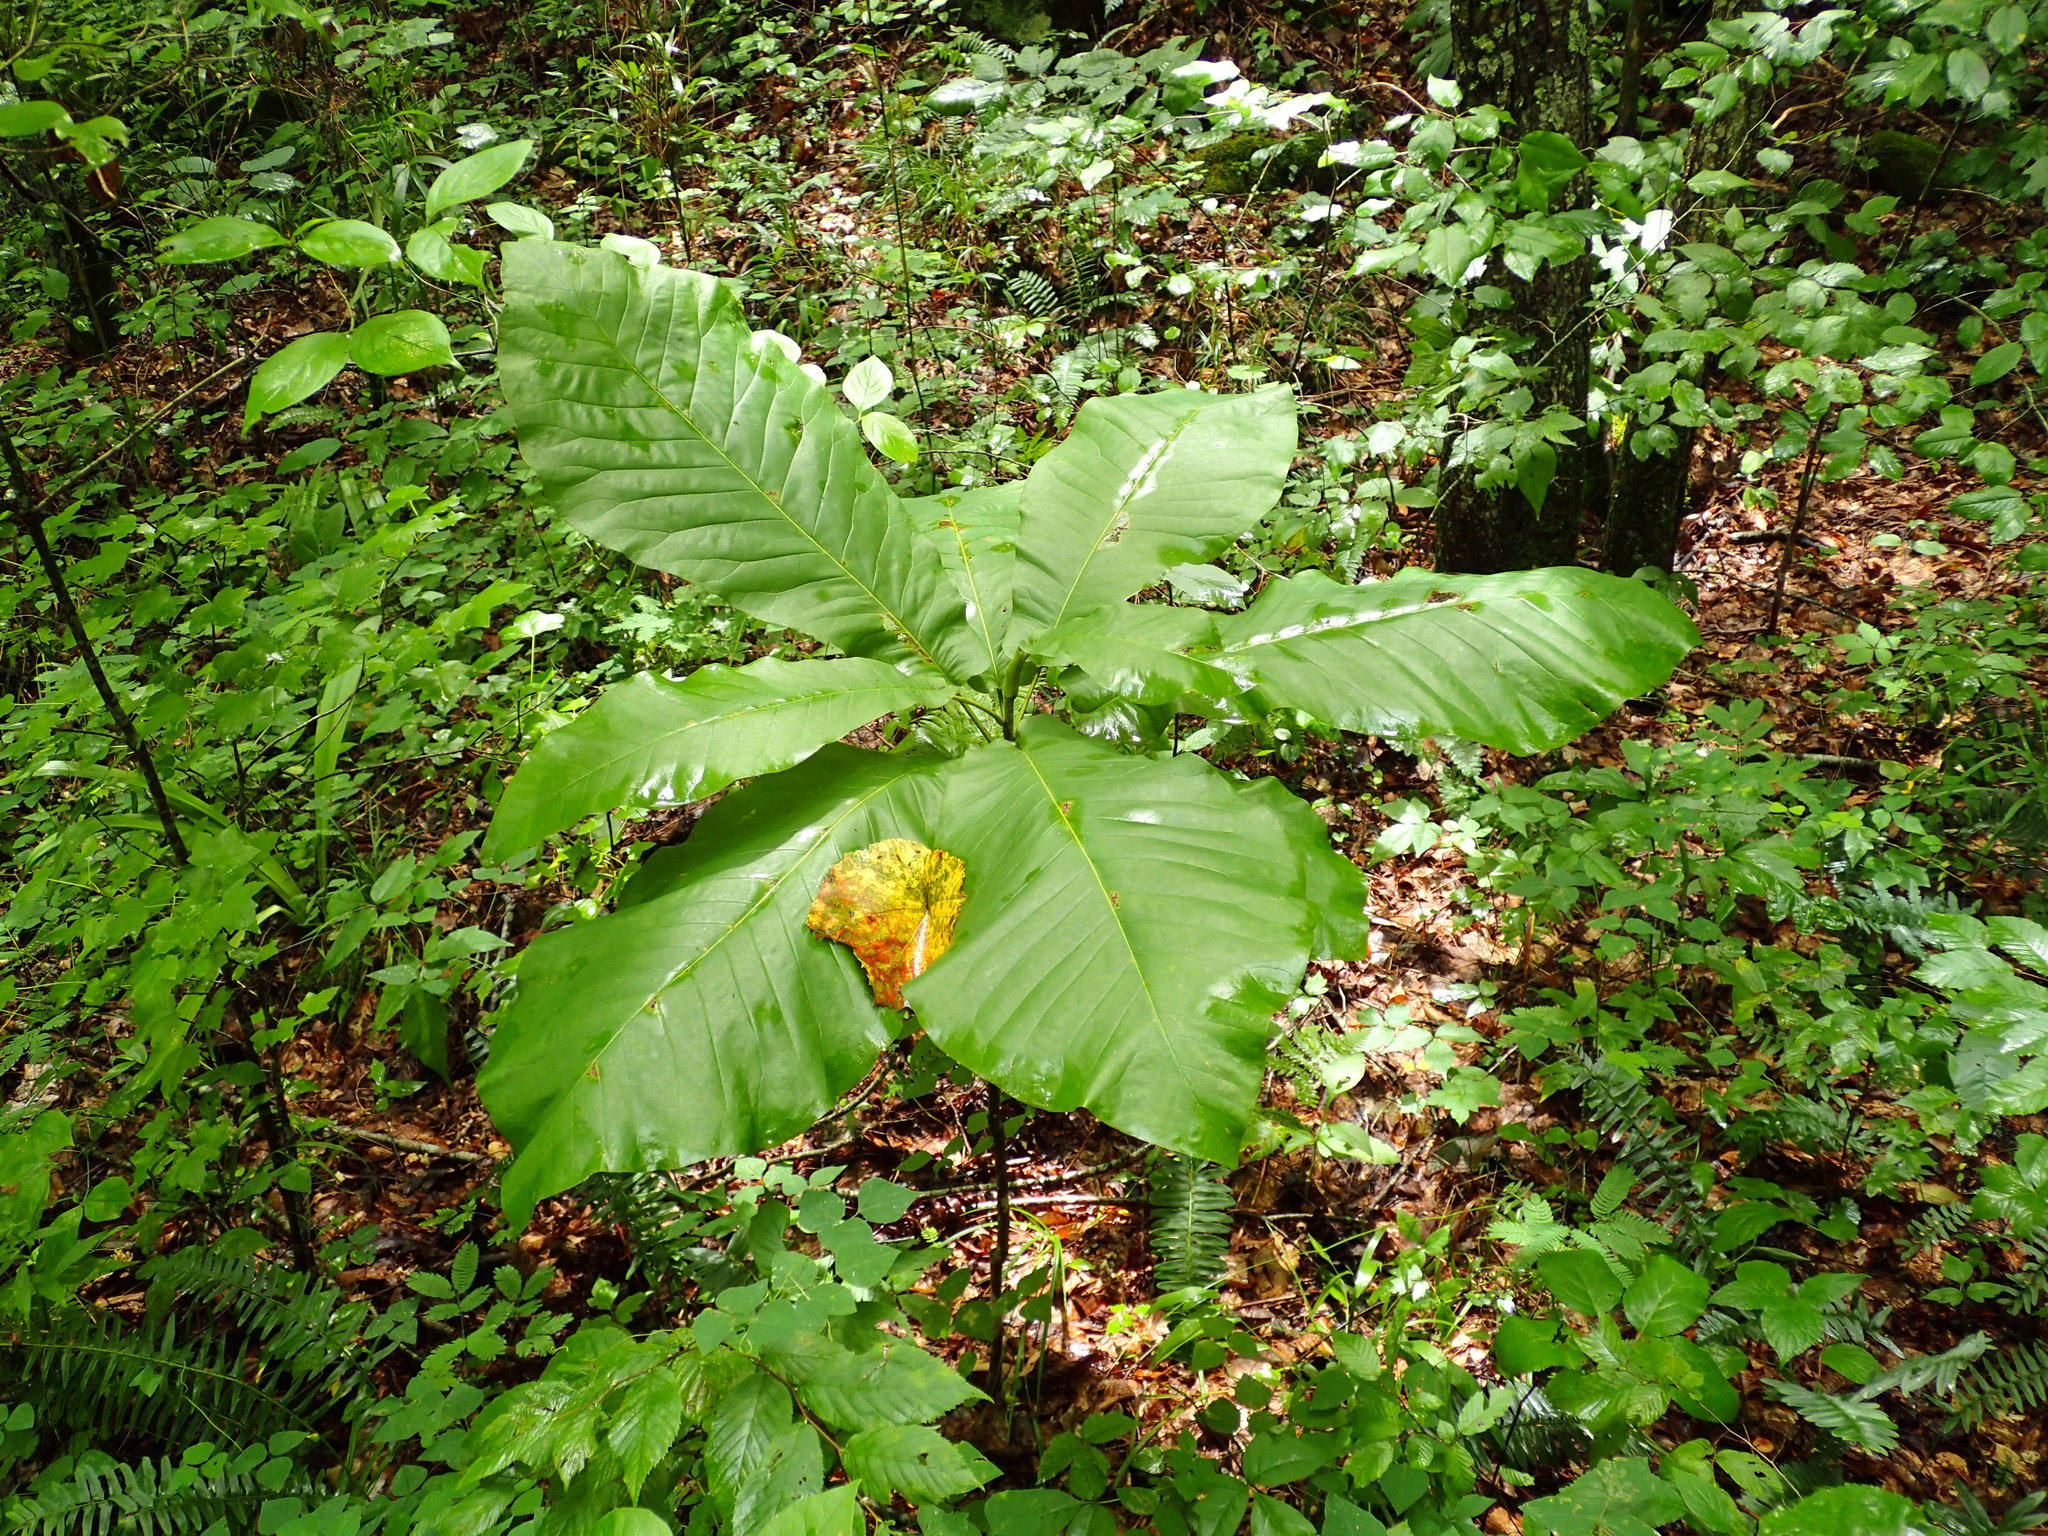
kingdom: Plantae
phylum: Tracheophyta
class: Magnoliopsida
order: Magnoliales
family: Magnoliaceae
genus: Magnolia
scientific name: Magnolia macrophylla
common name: Big-leaf magnolia
